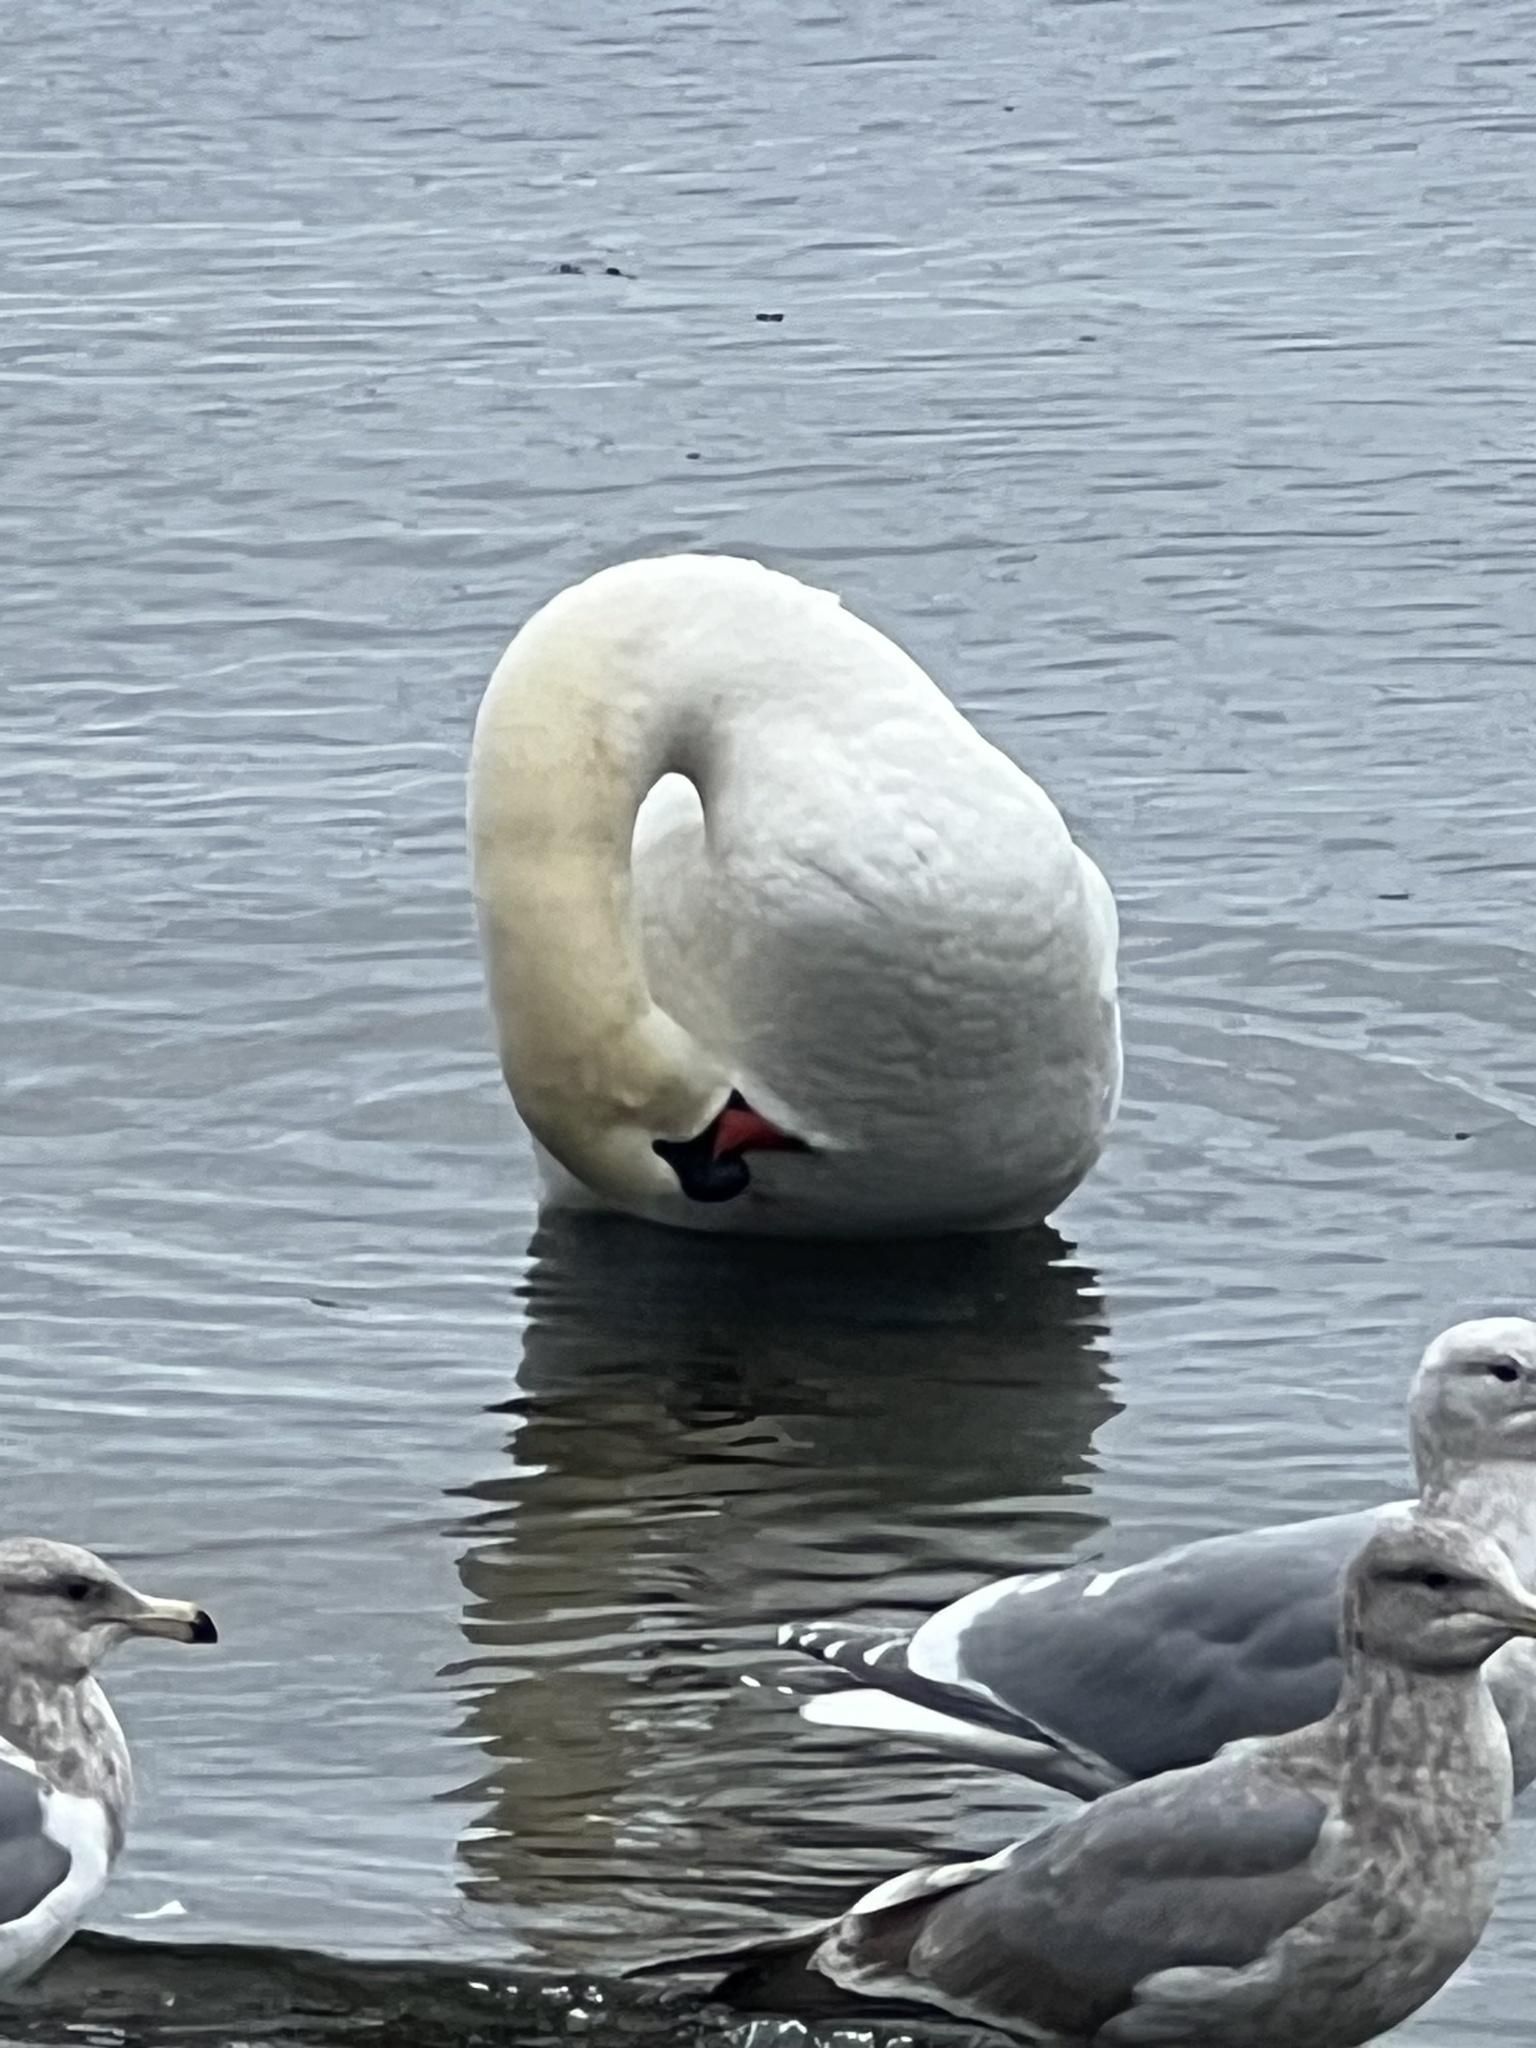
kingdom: Animalia
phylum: Chordata
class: Aves
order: Anseriformes
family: Anatidae
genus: Cygnus
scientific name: Cygnus olor
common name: Mute swan
